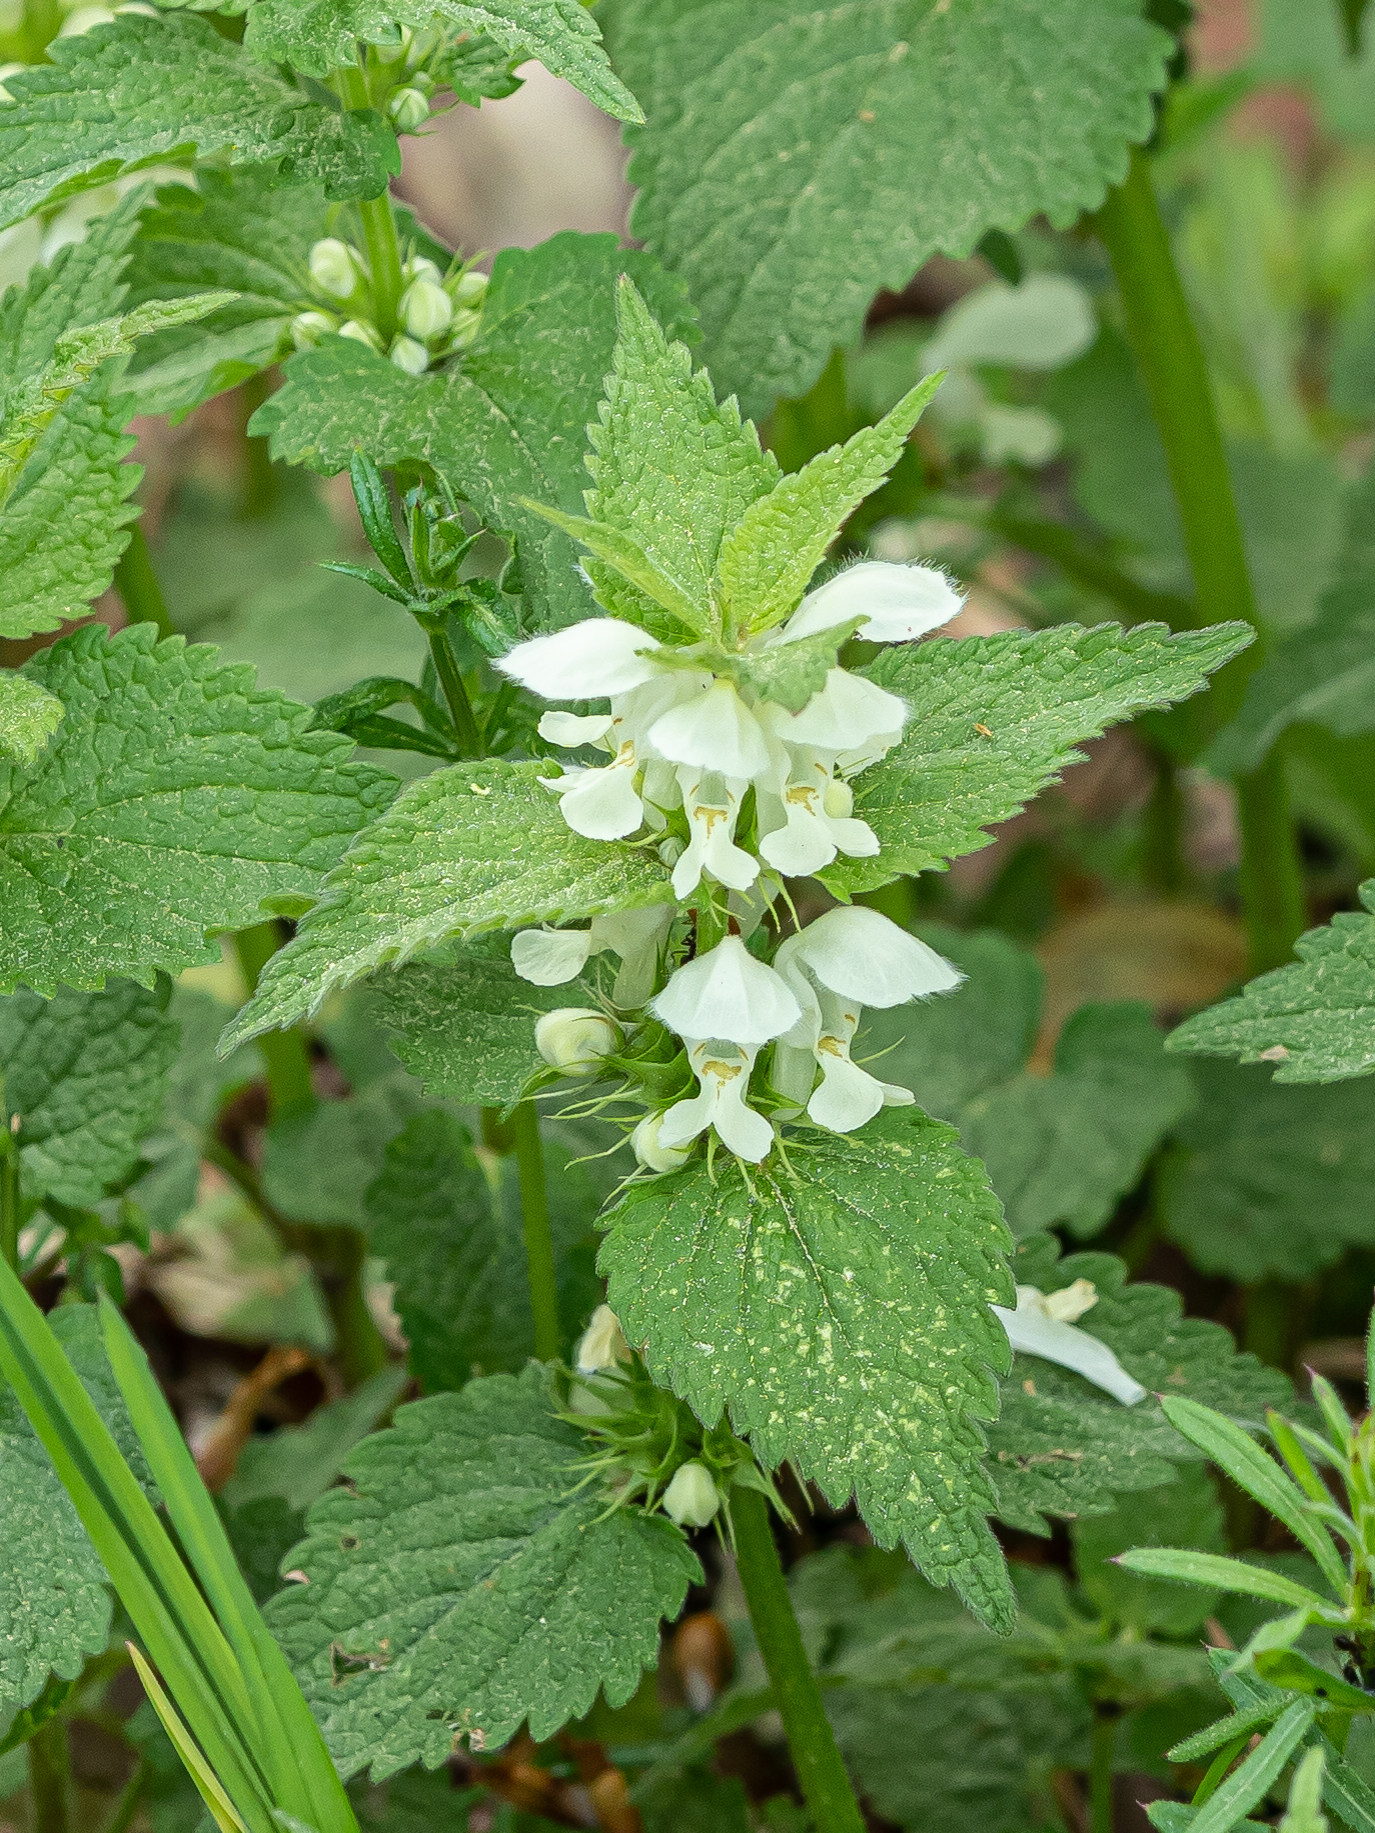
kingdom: Plantae
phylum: Tracheophyta
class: Magnoliopsida
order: Lamiales
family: Lamiaceae
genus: Lamium
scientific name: Lamium album
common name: White dead-nettle
